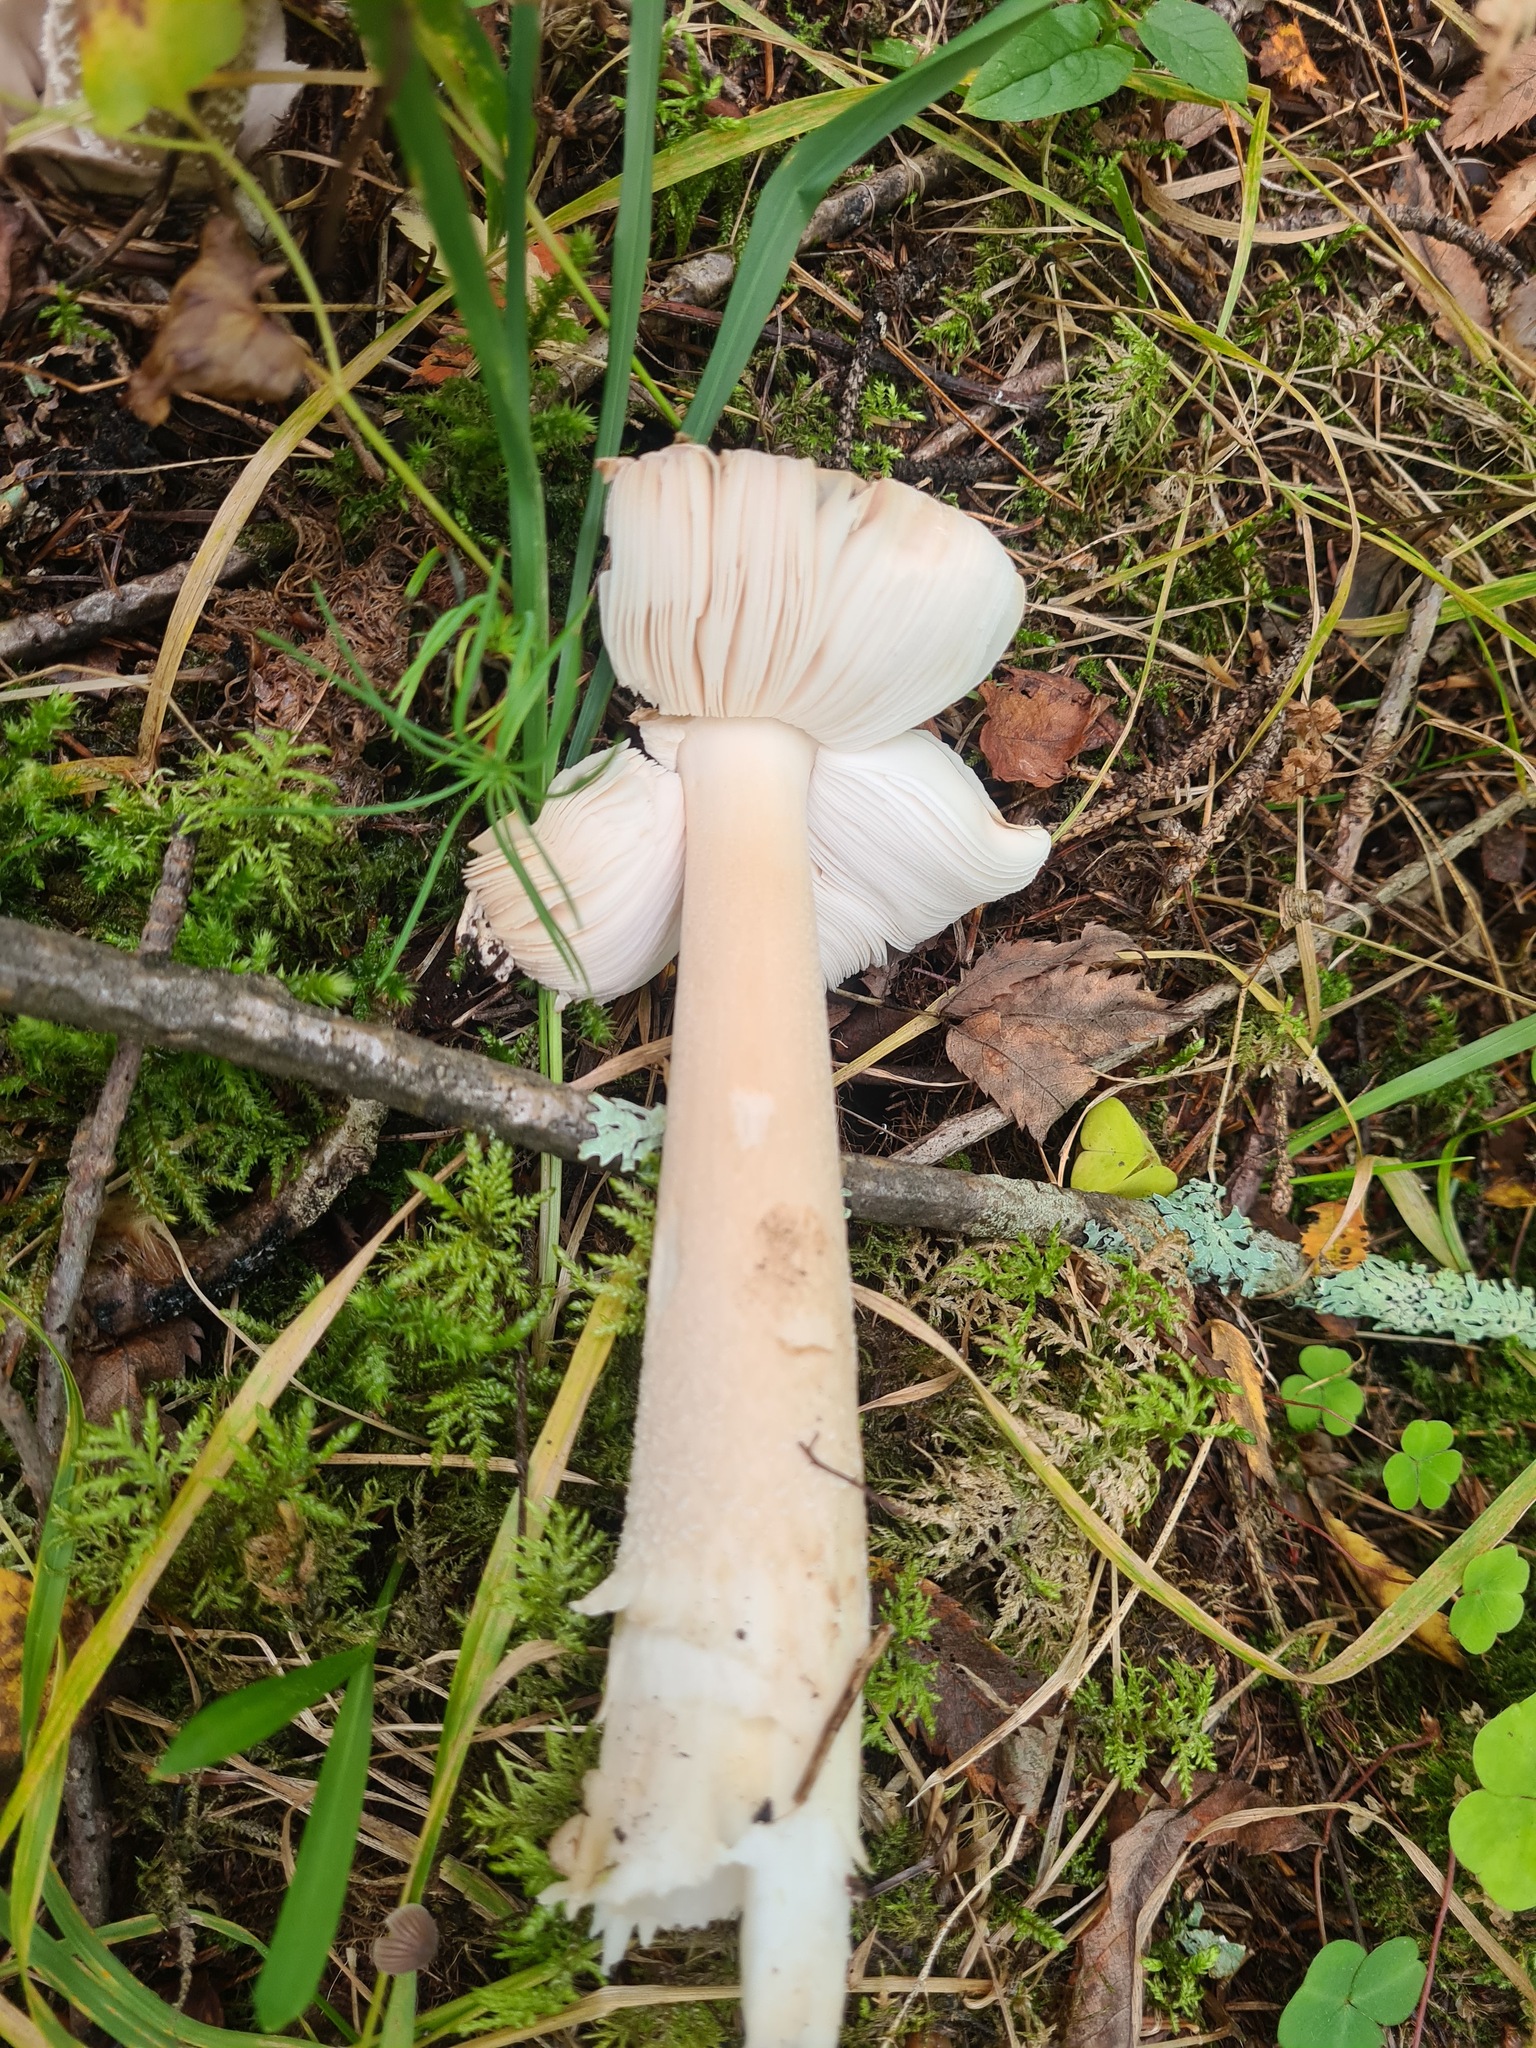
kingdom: Fungi
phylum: Basidiomycota
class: Agaricomycetes
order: Agaricales
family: Amanitaceae
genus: Amanita
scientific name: Amanita battarrae
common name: Banded amanita
